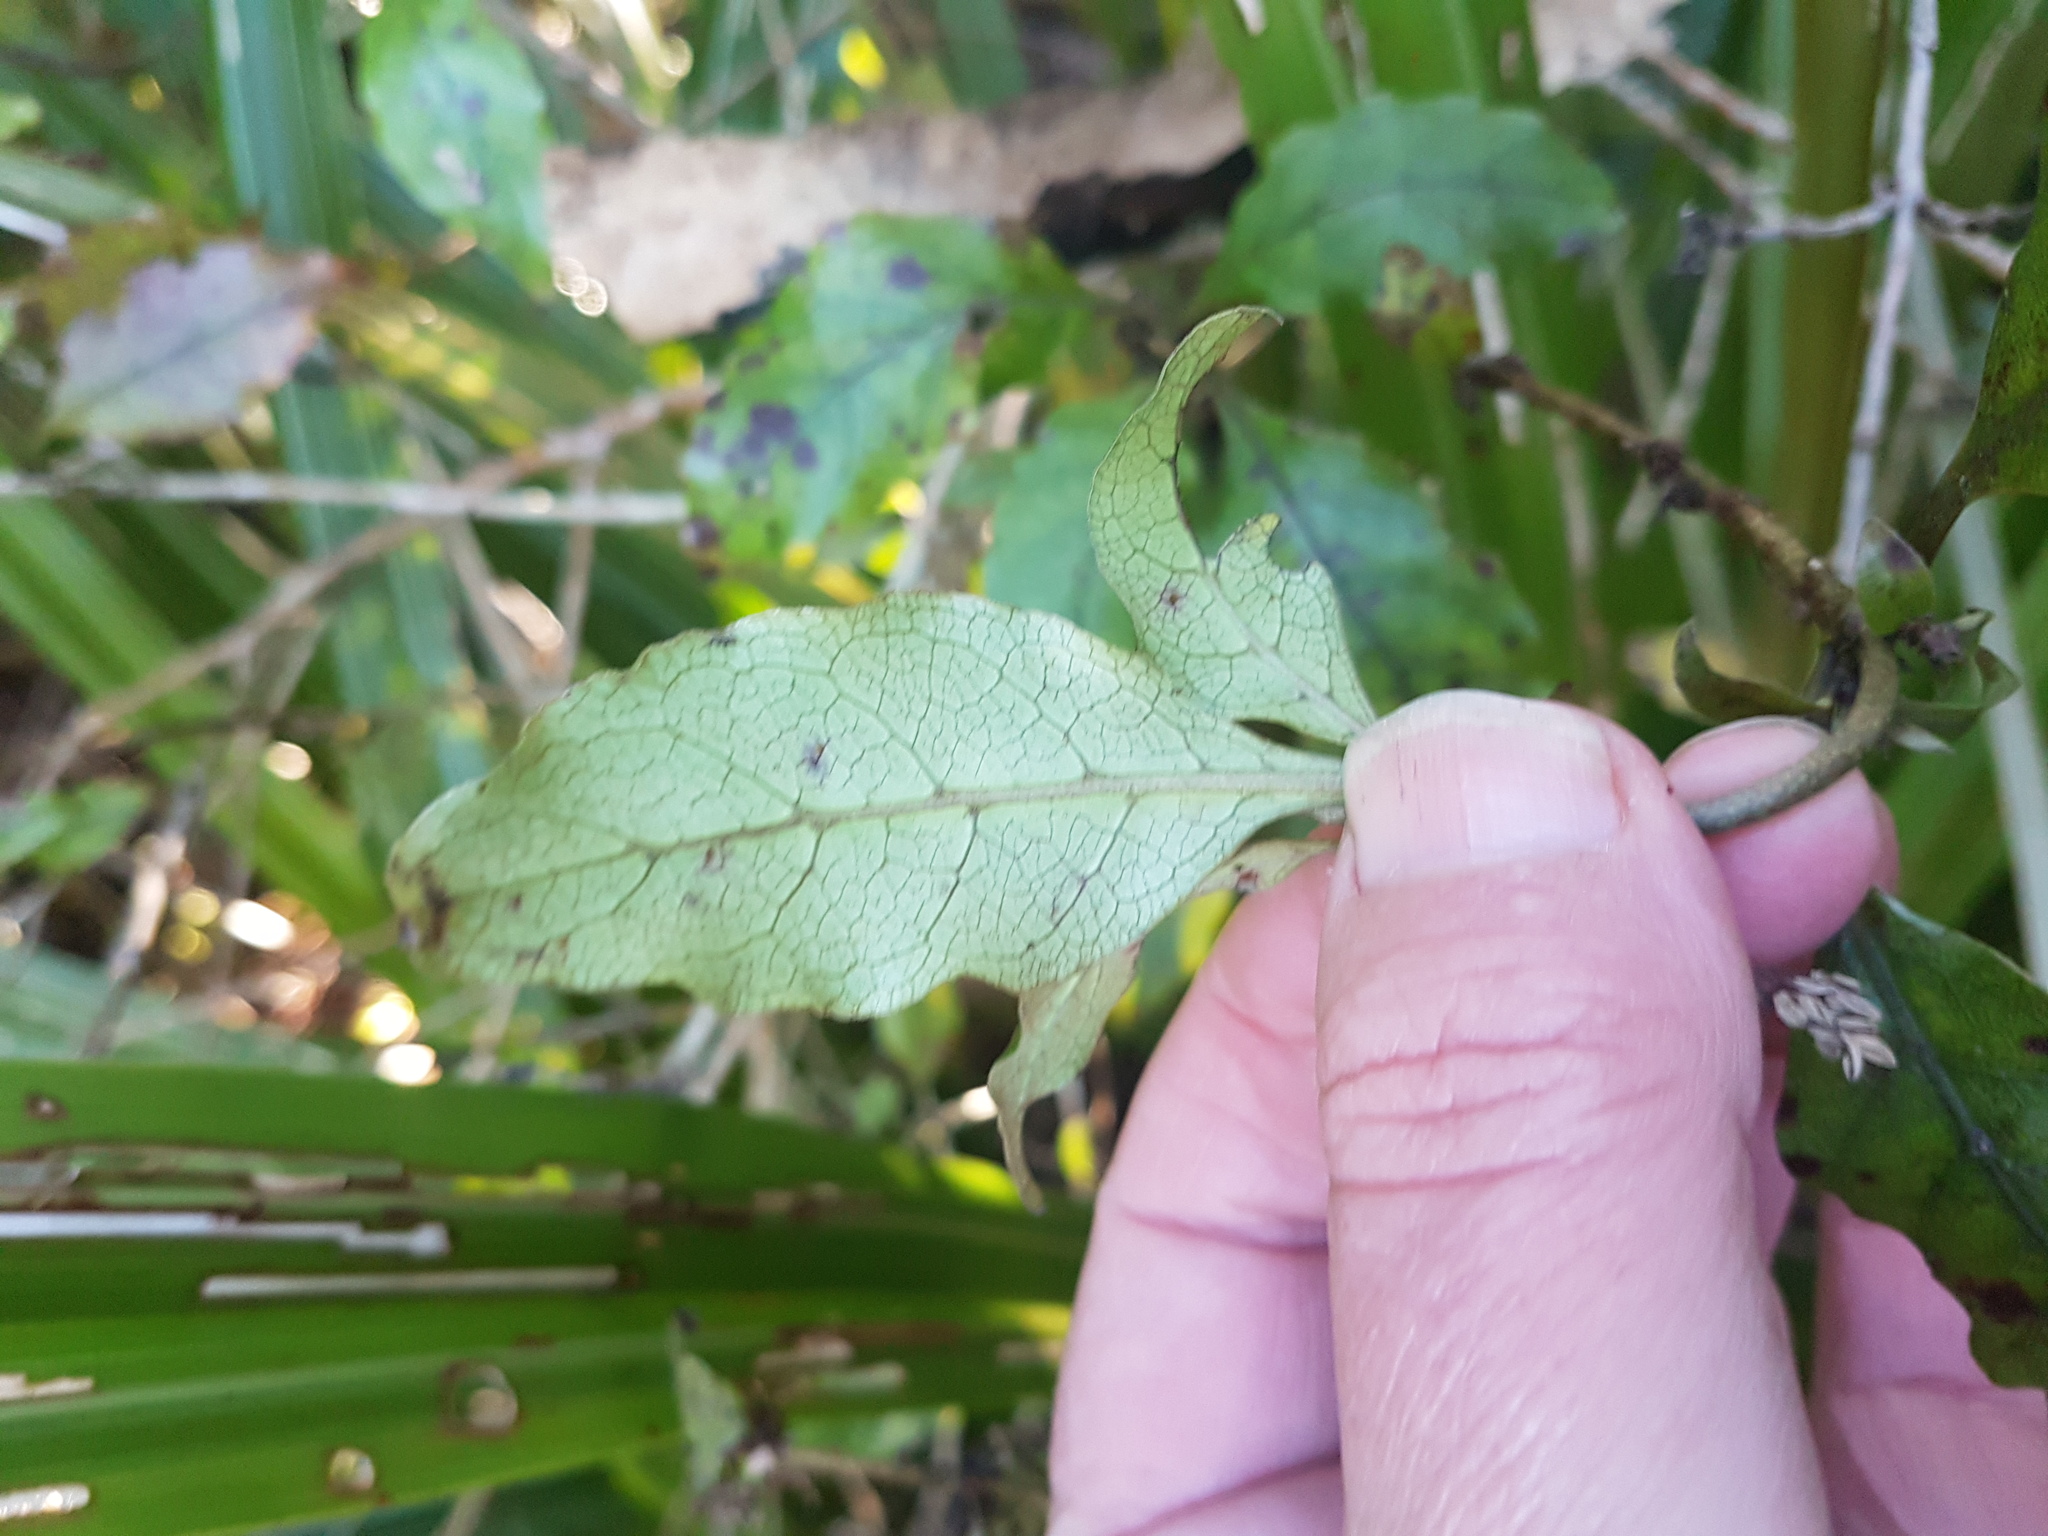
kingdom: Plantae
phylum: Tracheophyta
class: Magnoliopsida
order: Gentianales
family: Rubiaceae
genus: Coprosma
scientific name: Coprosma tenuifolia
